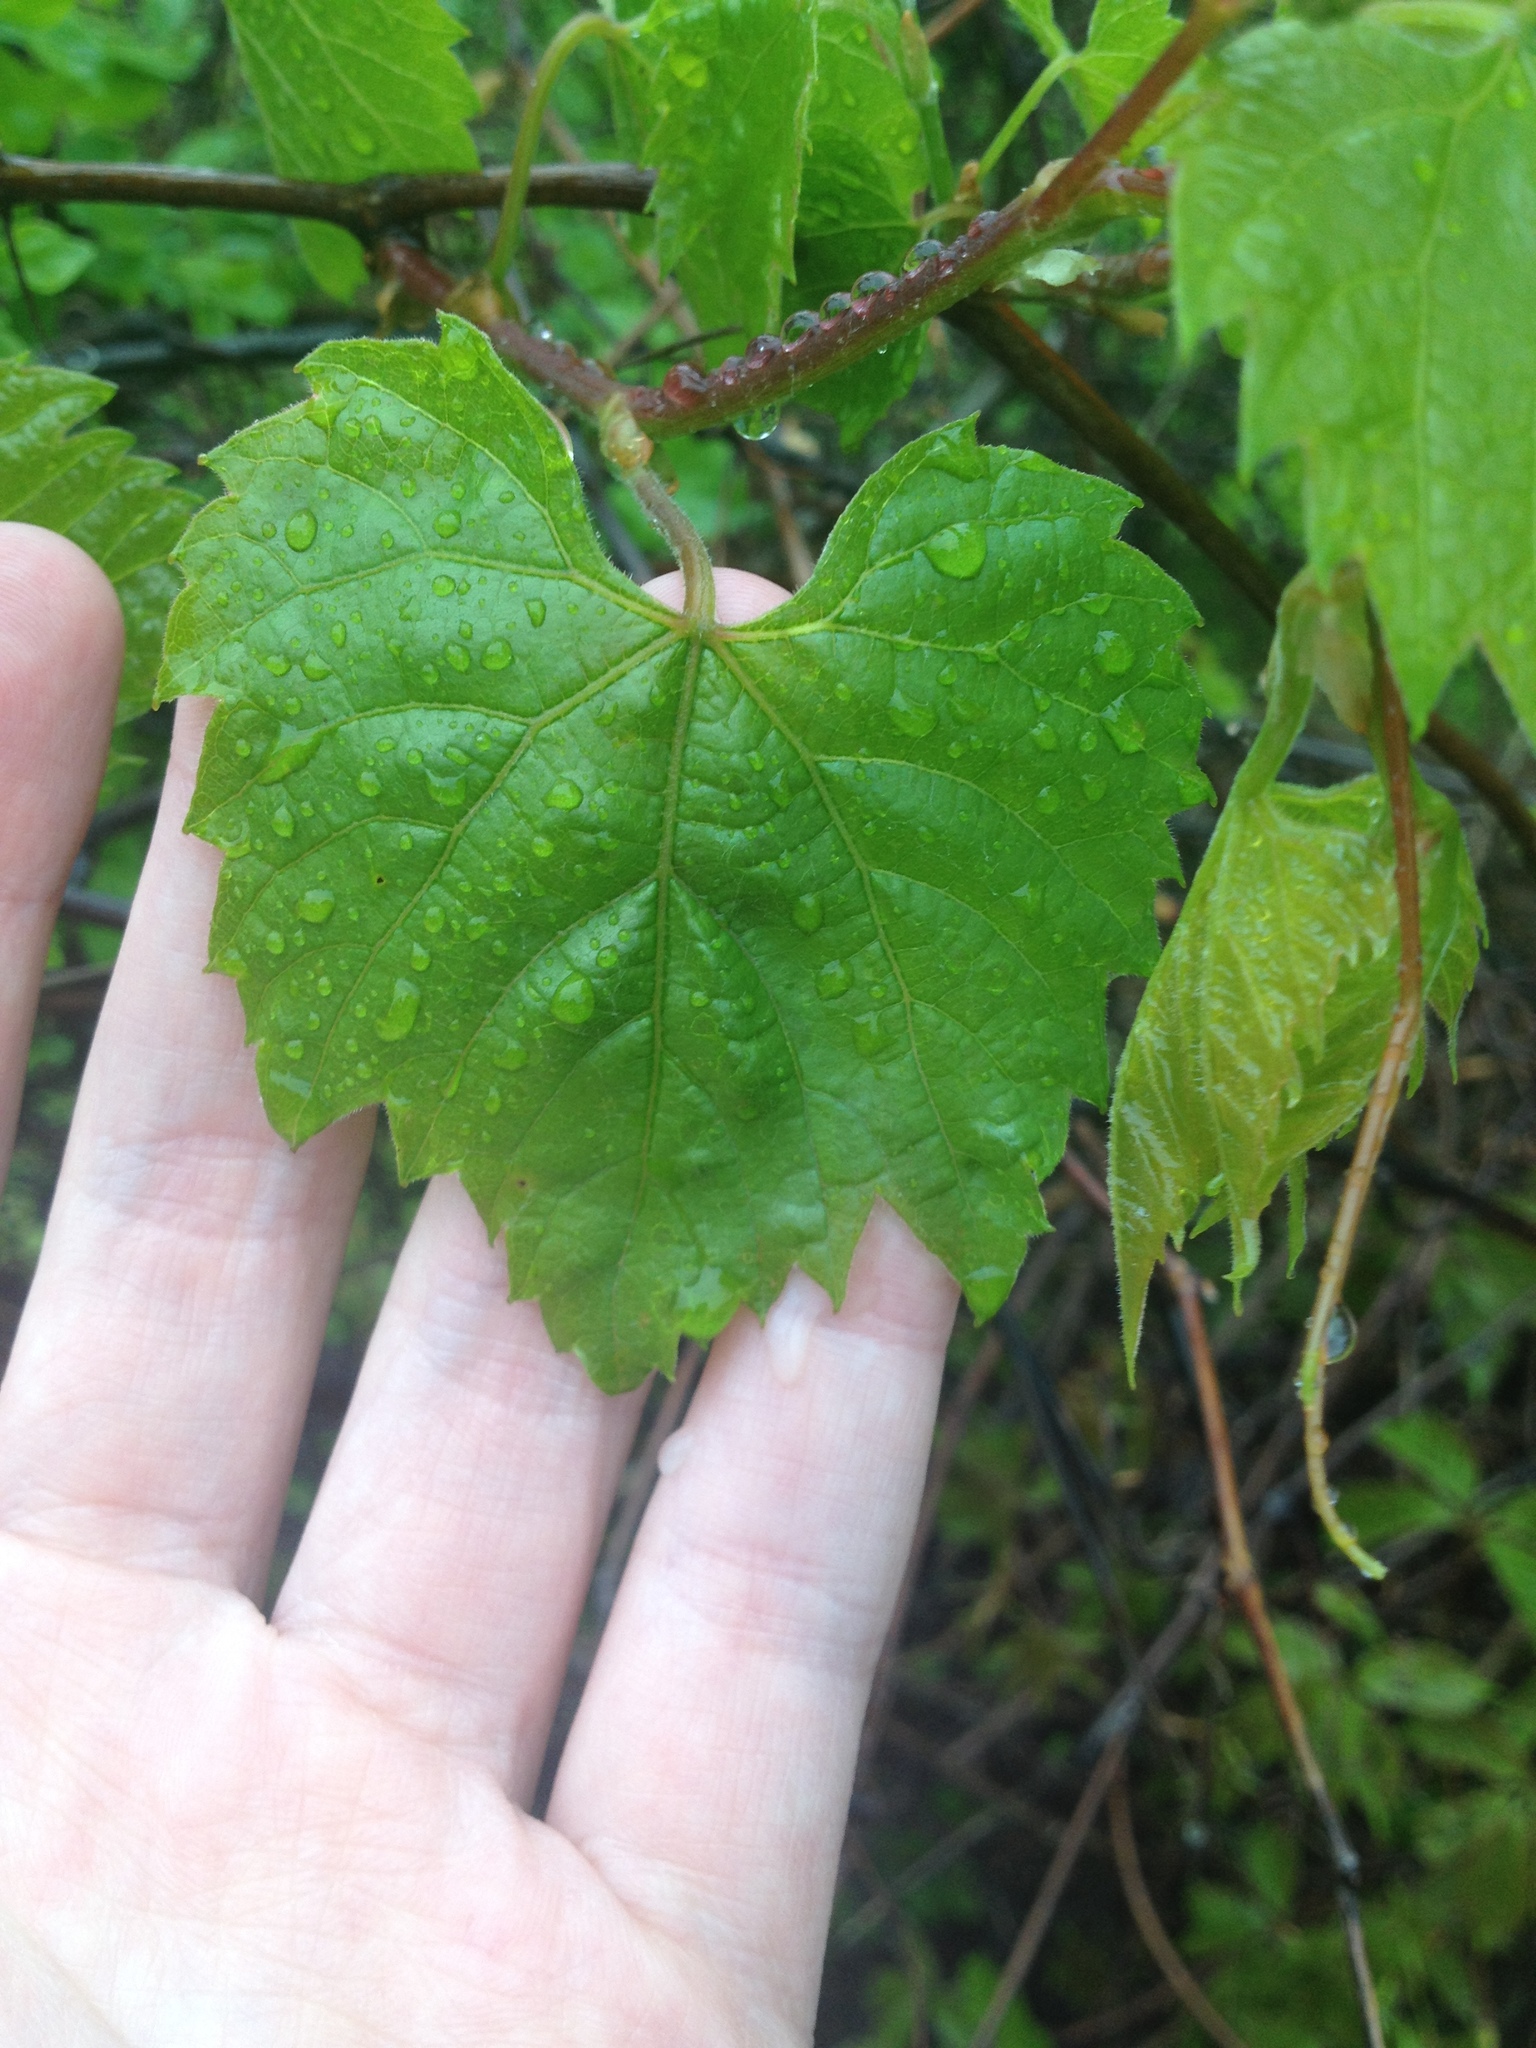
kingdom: Plantae
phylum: Tracheophyta
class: Magnoliopsida
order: Vitales
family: Vitaceae
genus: Vitis
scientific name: Vitis labrusca
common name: Concord grape
